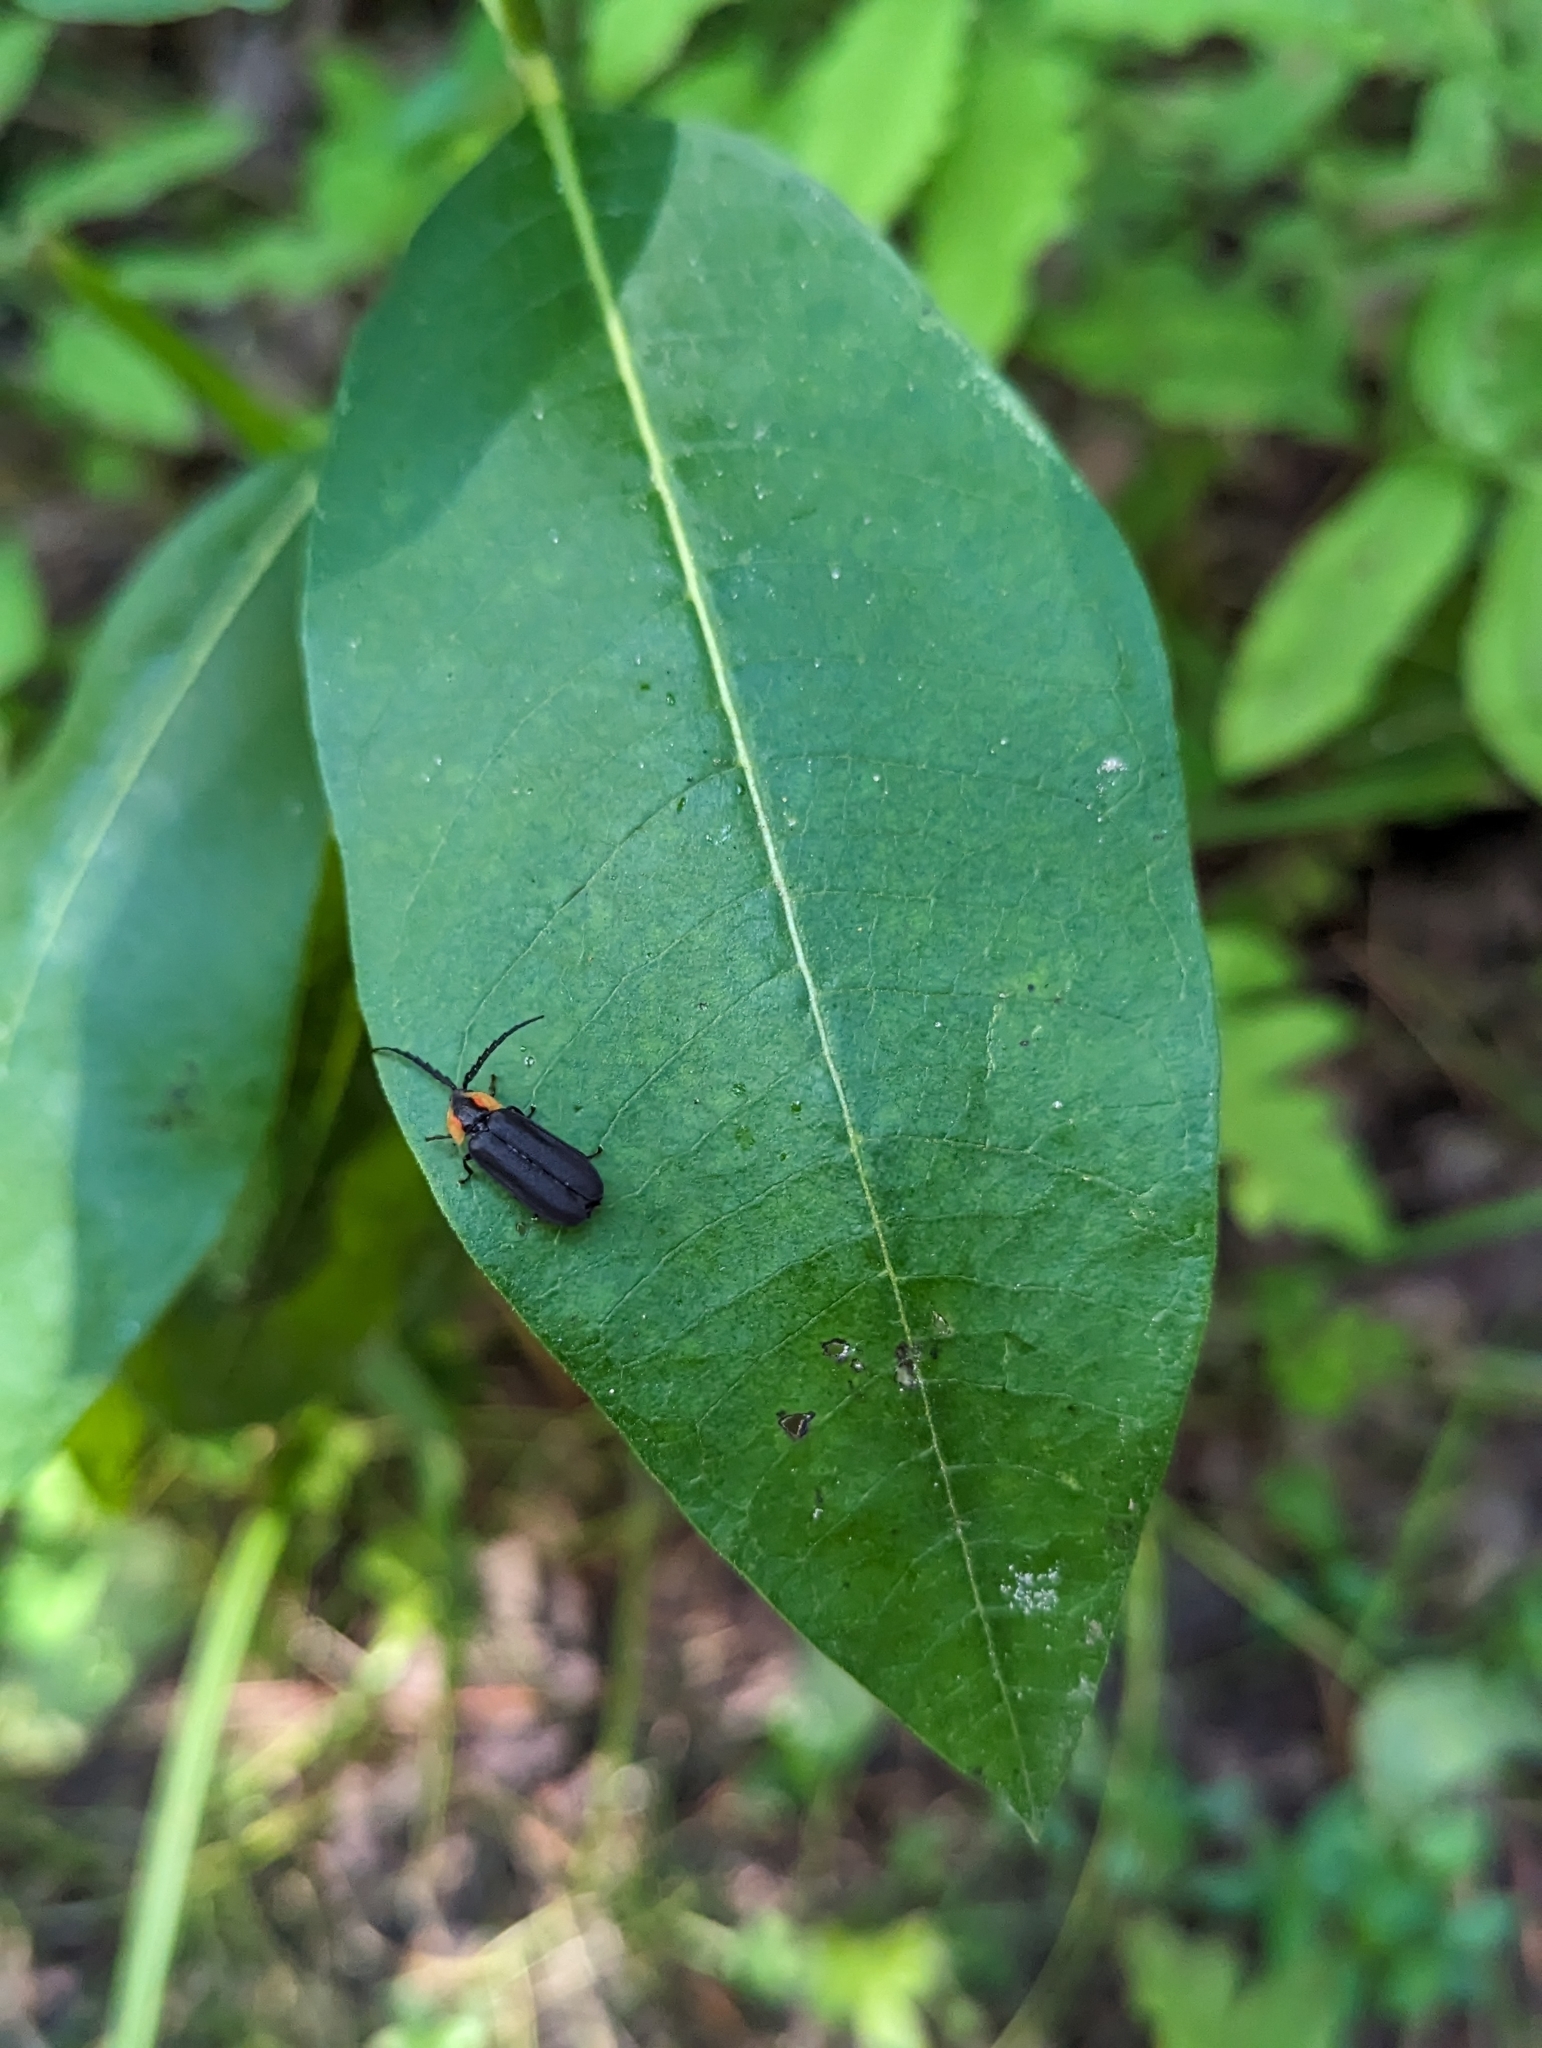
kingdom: Animalia
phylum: Arthropoda
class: Insecta
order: Coleoptera
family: Lampyridae
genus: Lucidota
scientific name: Lucidota atra
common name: Black firefly
